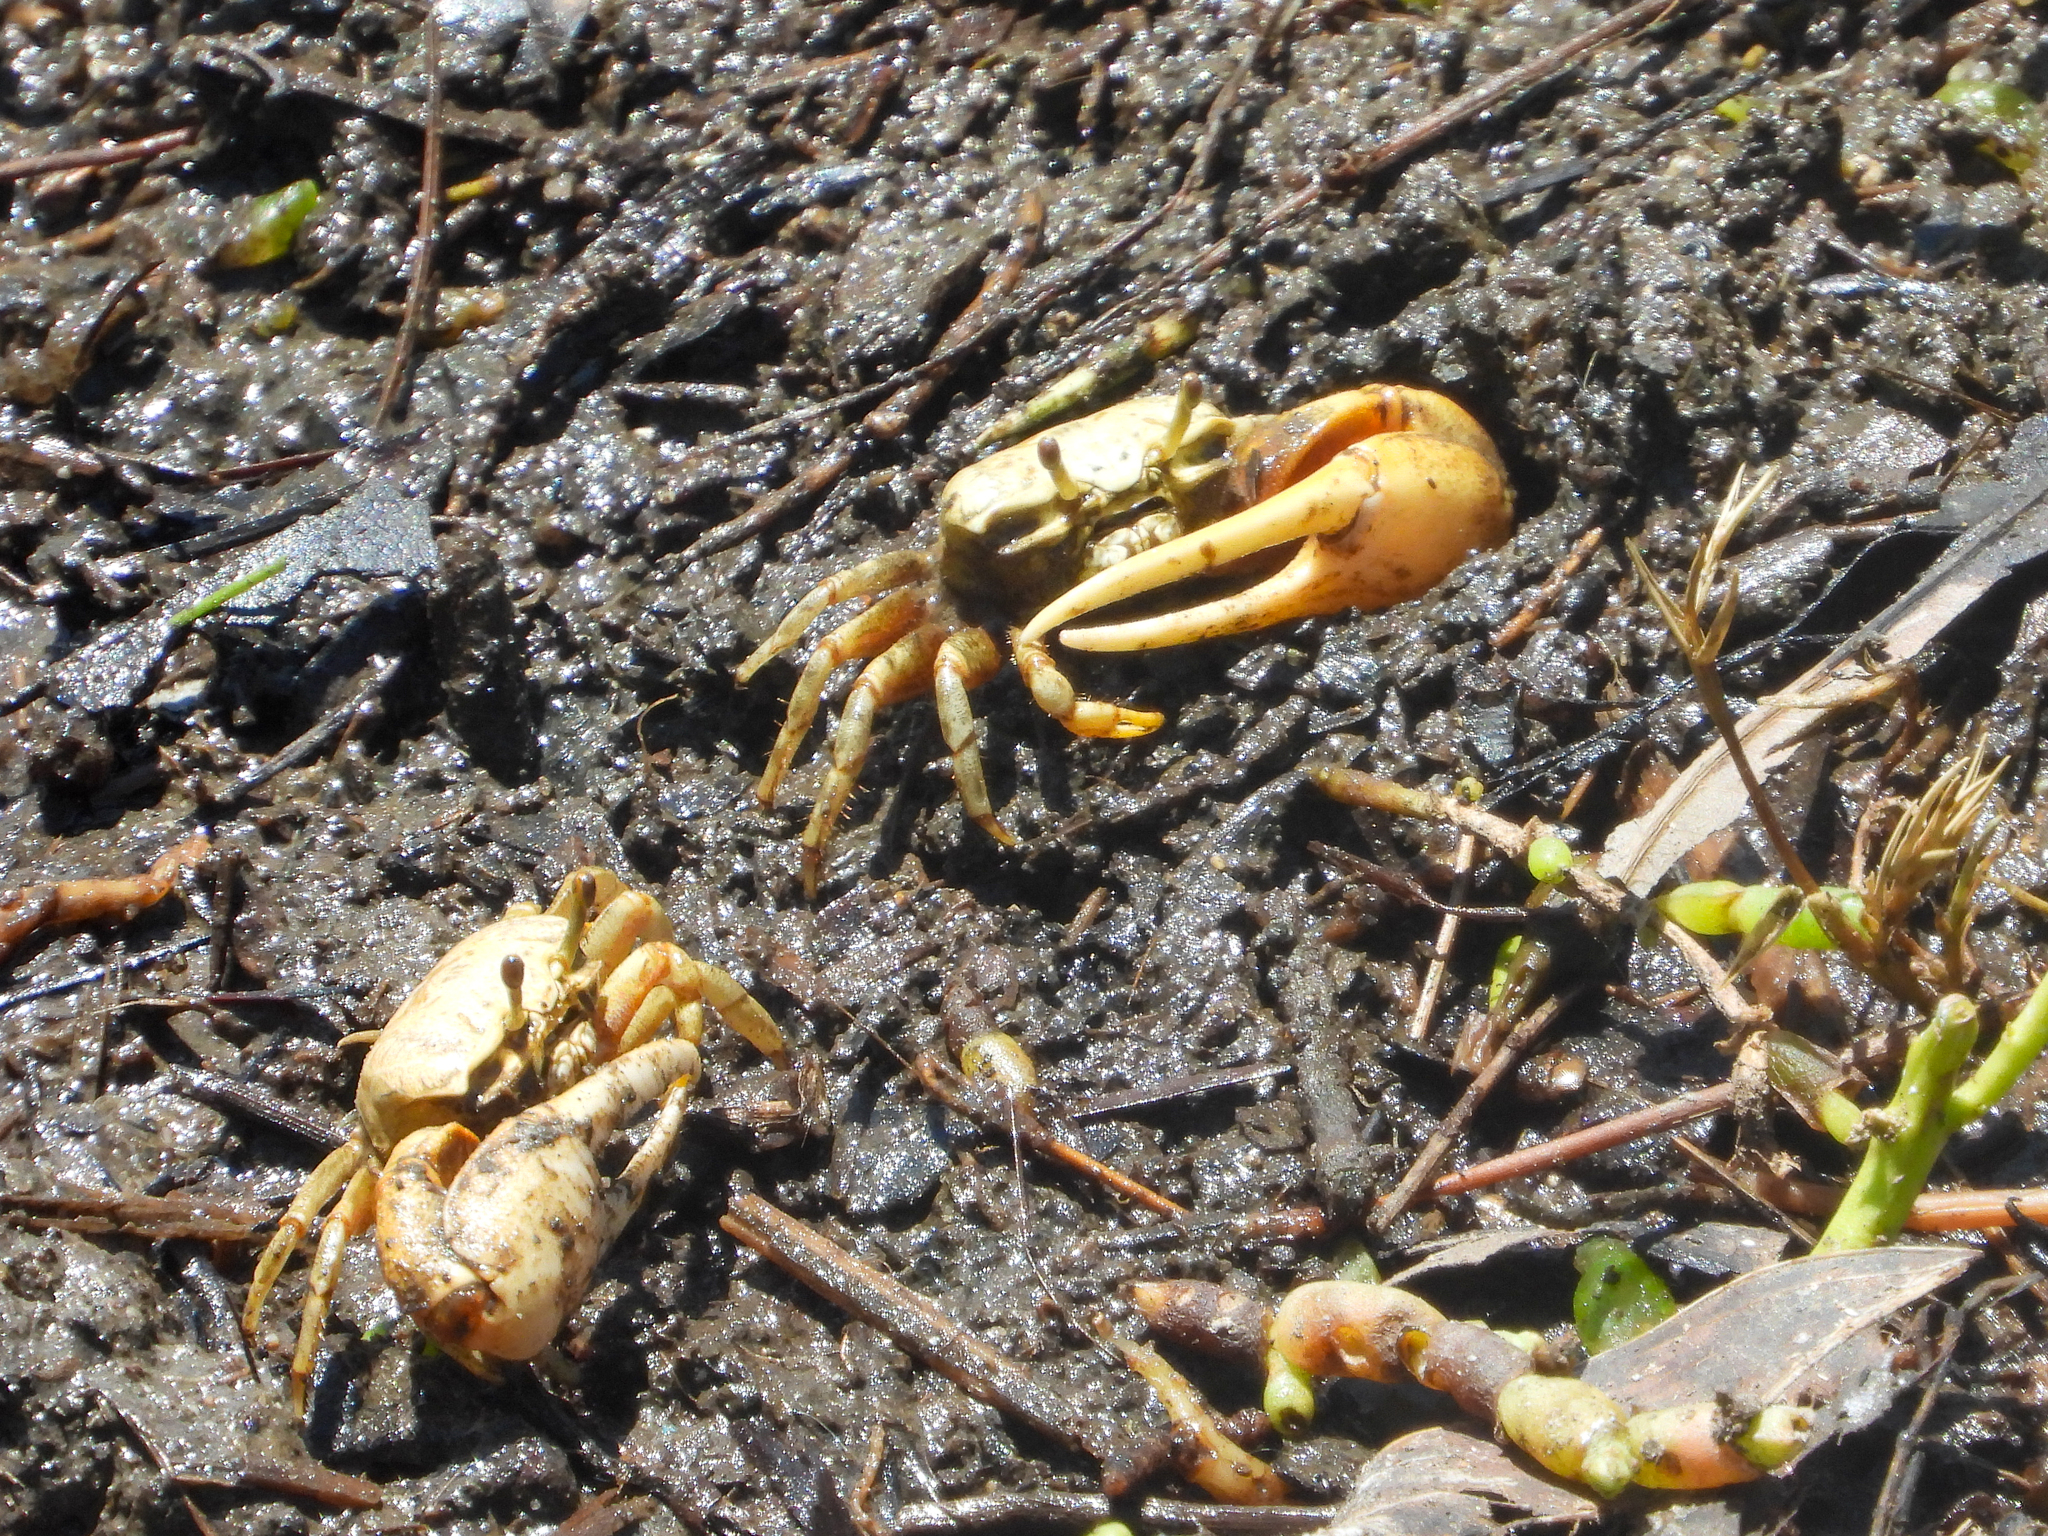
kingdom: Animalia
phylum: Arthropoda
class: Malacostraca
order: Decapoda
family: Ocypodidae
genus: Leptuca
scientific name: Leptuca crenulata
